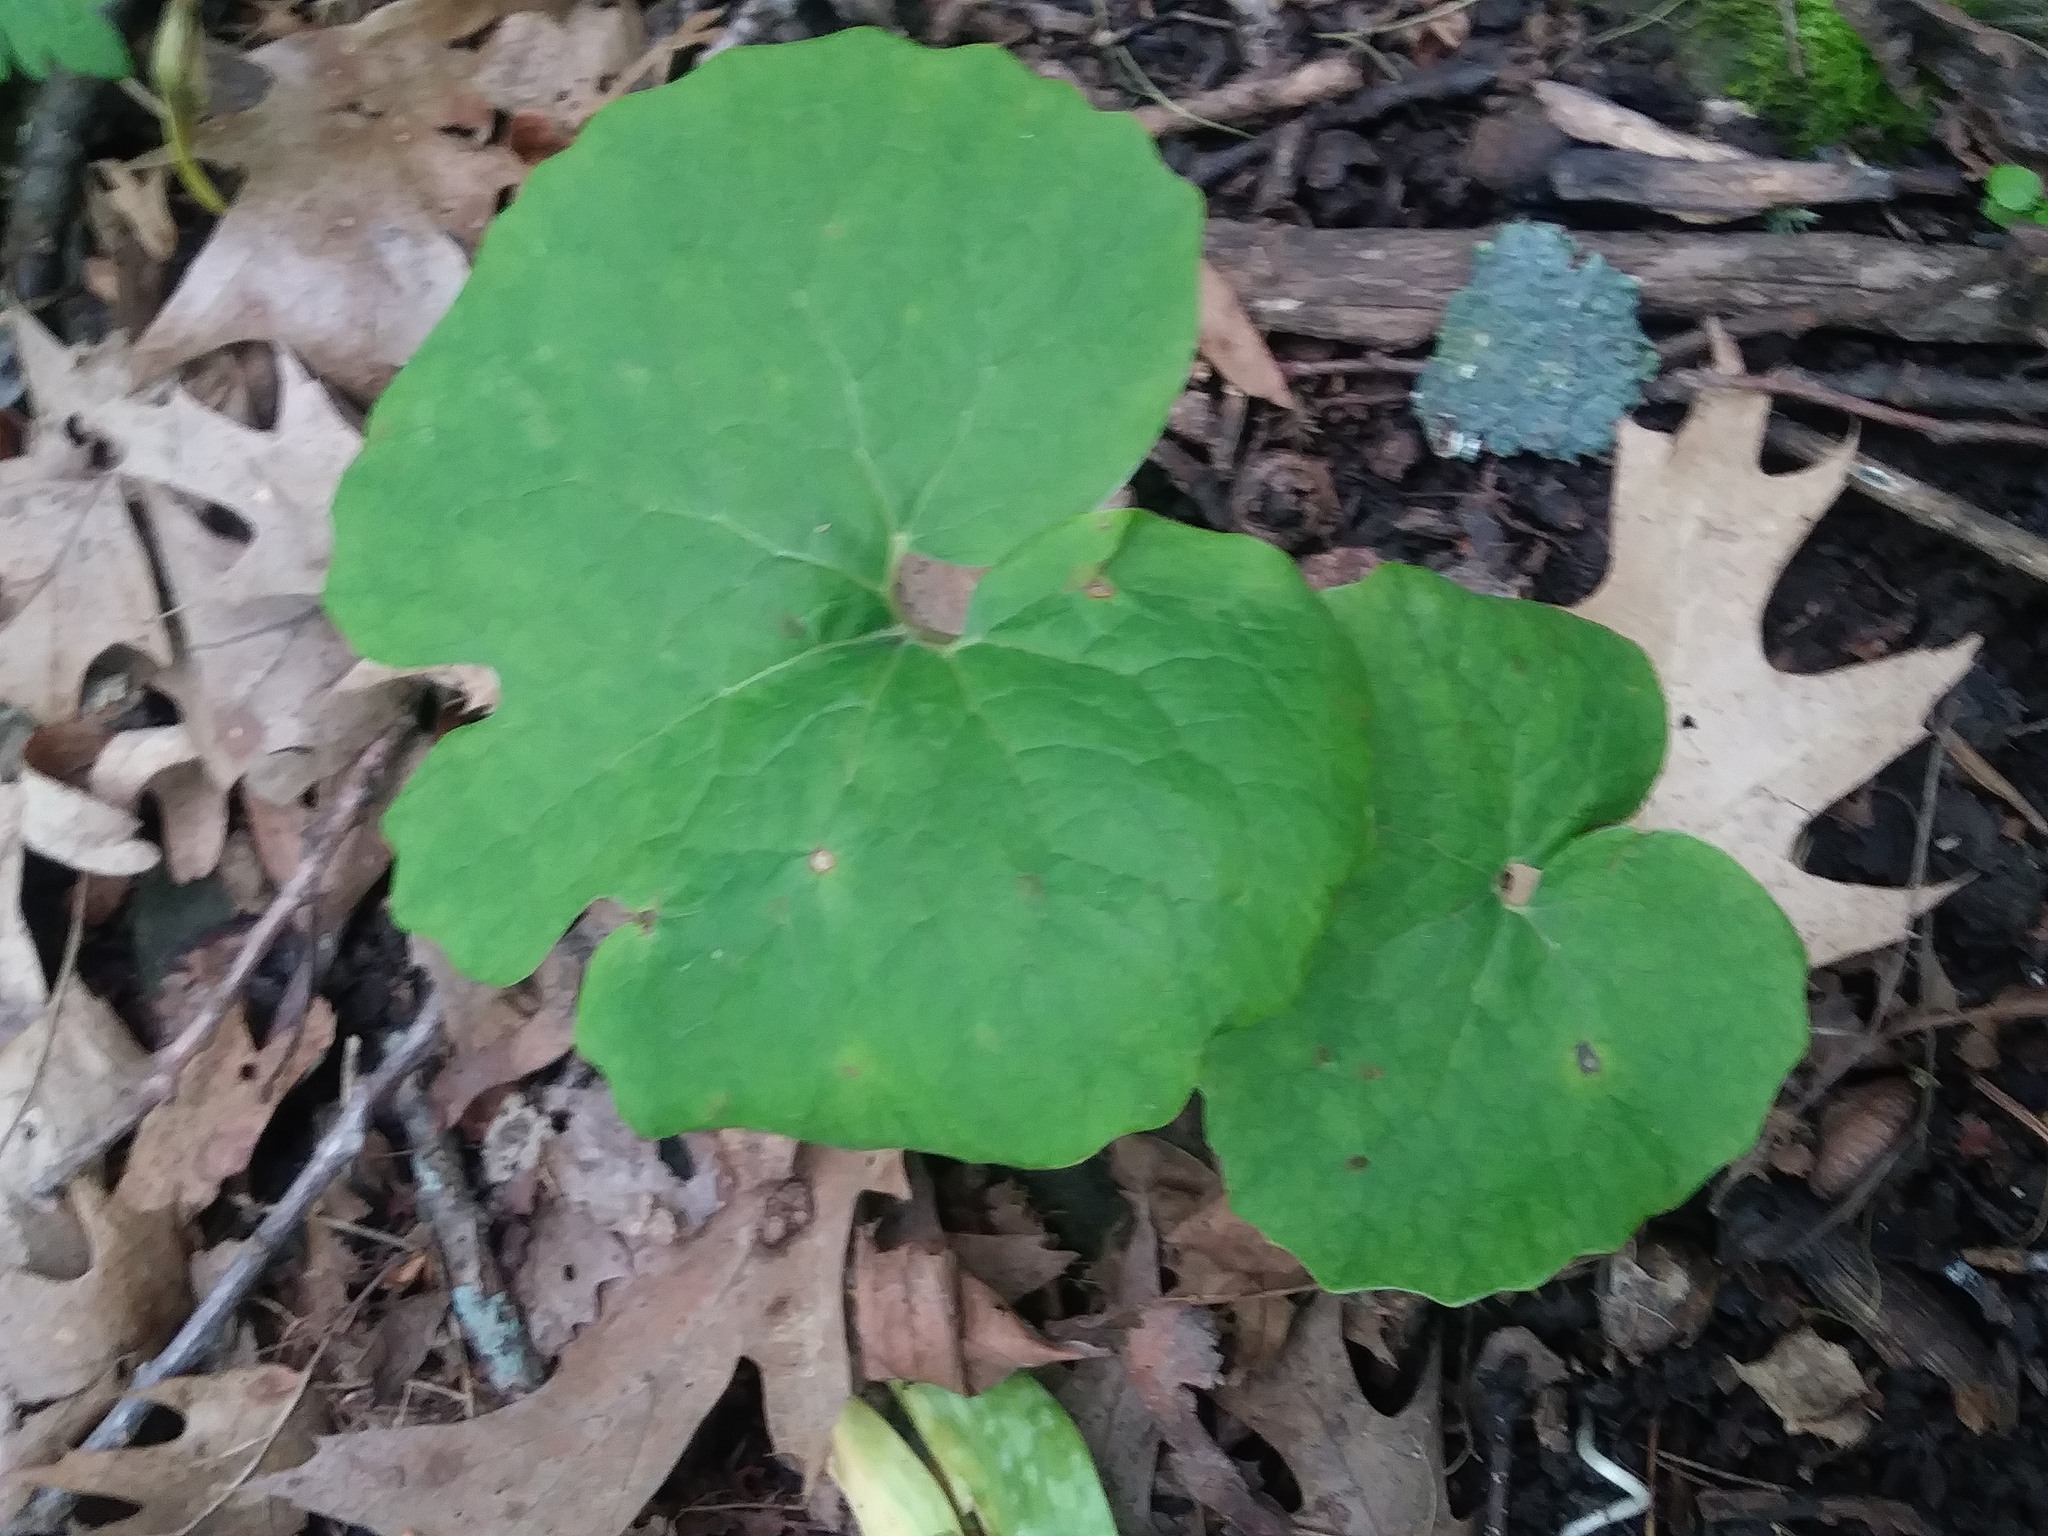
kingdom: Plantae
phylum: Tracheophyta
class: Magnoliopsida
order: Ranunculales
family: Papaveraceae
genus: Sanguinaria
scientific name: Sanguinaria canadensis
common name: Bloodroot
